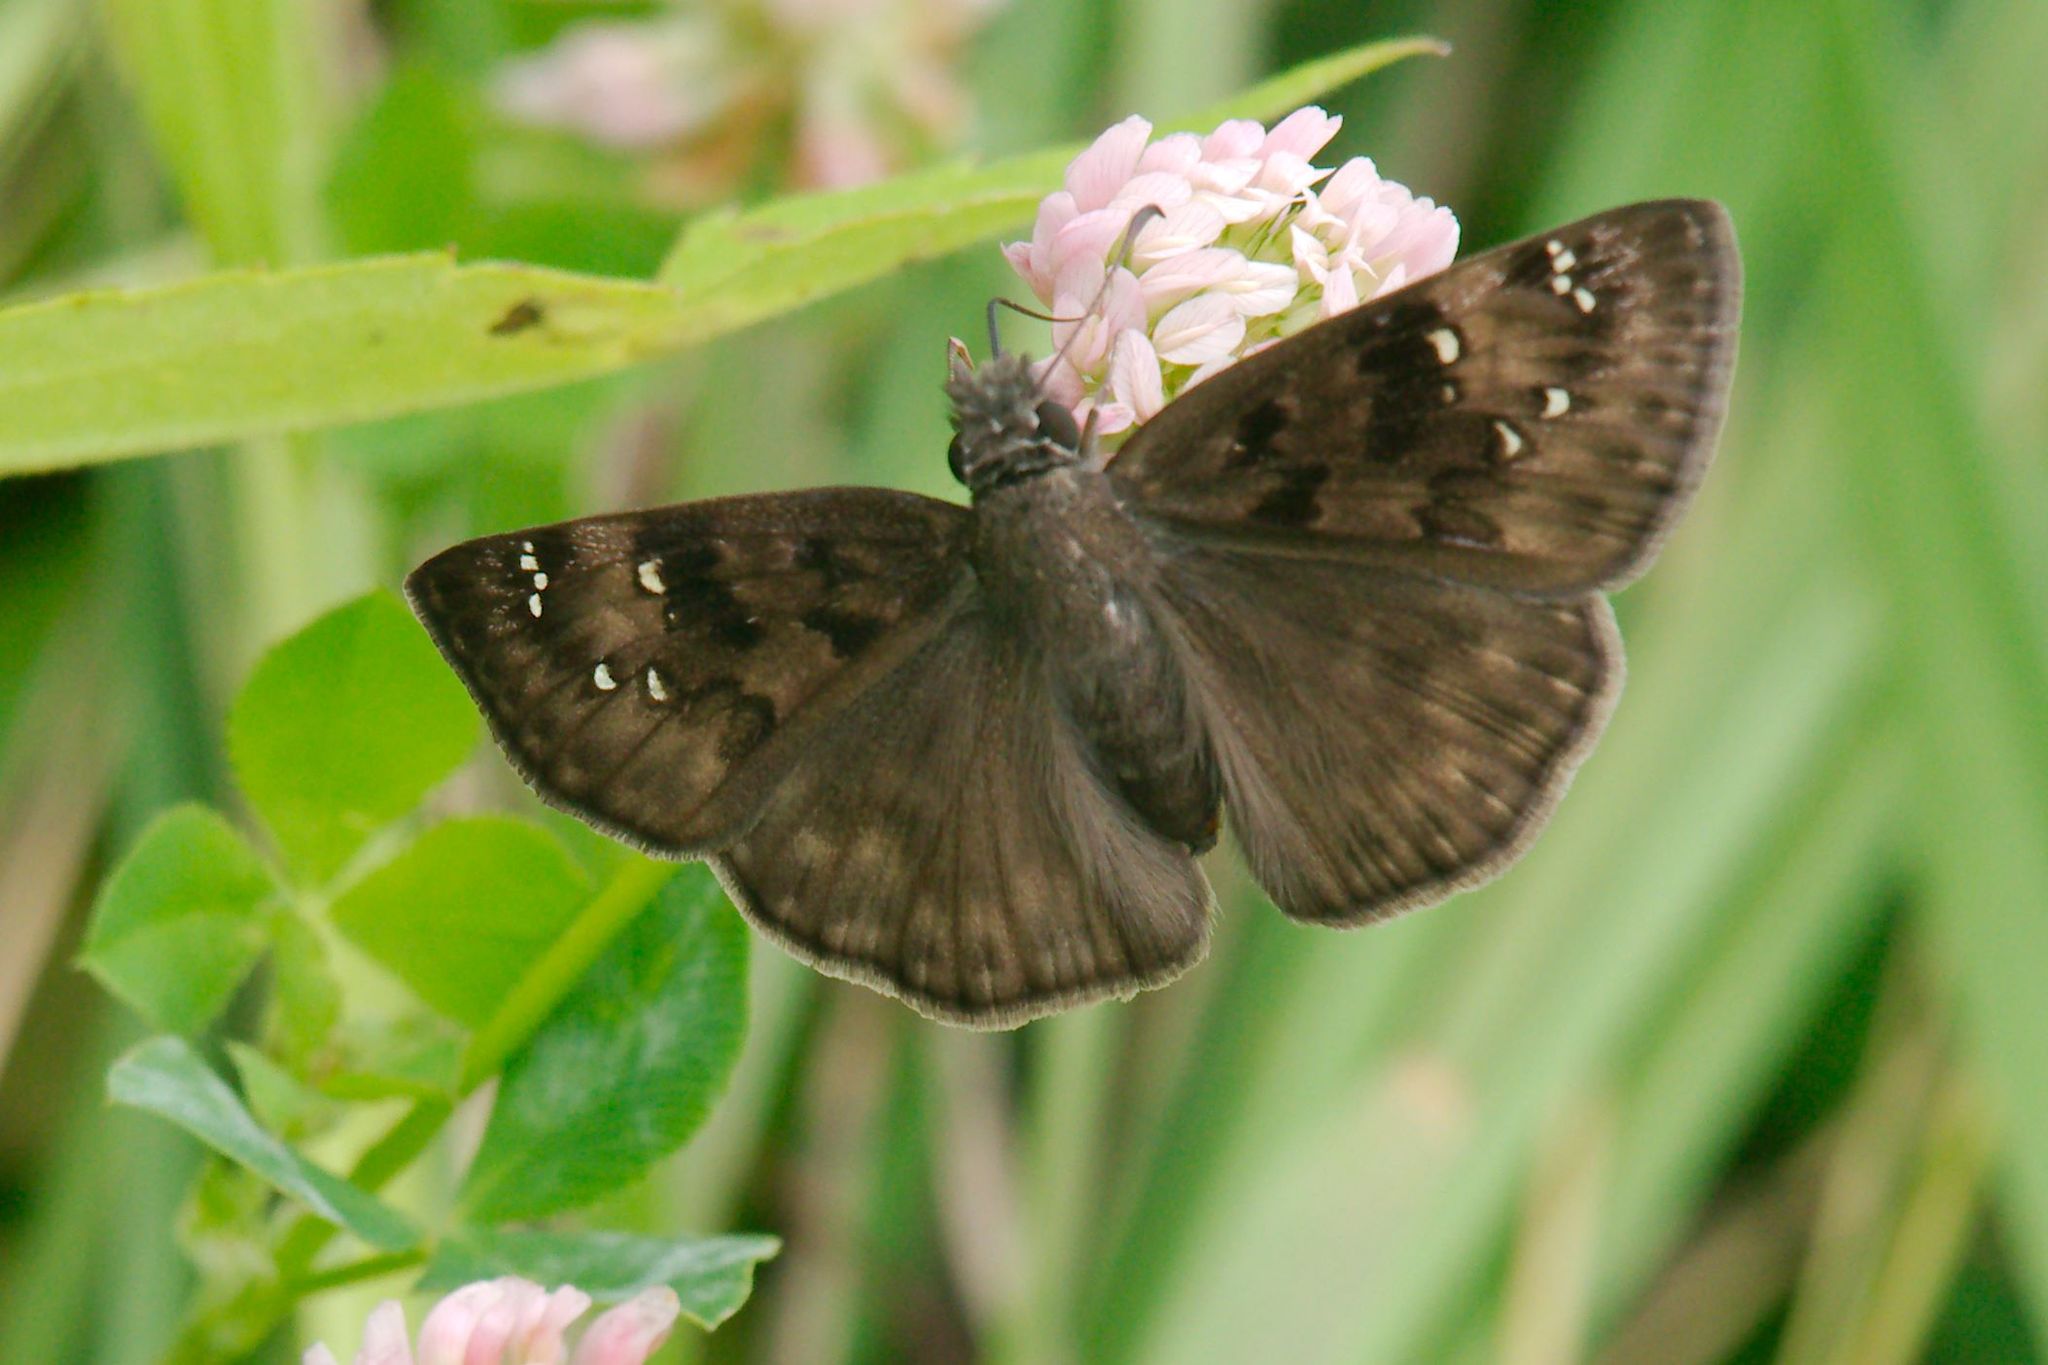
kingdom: Animalia
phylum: Arthropoda
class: Insecta
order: Lepidoptera
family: Hesperiidae
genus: Erynnis
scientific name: Erynnis horatius
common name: Horace's duskywing
